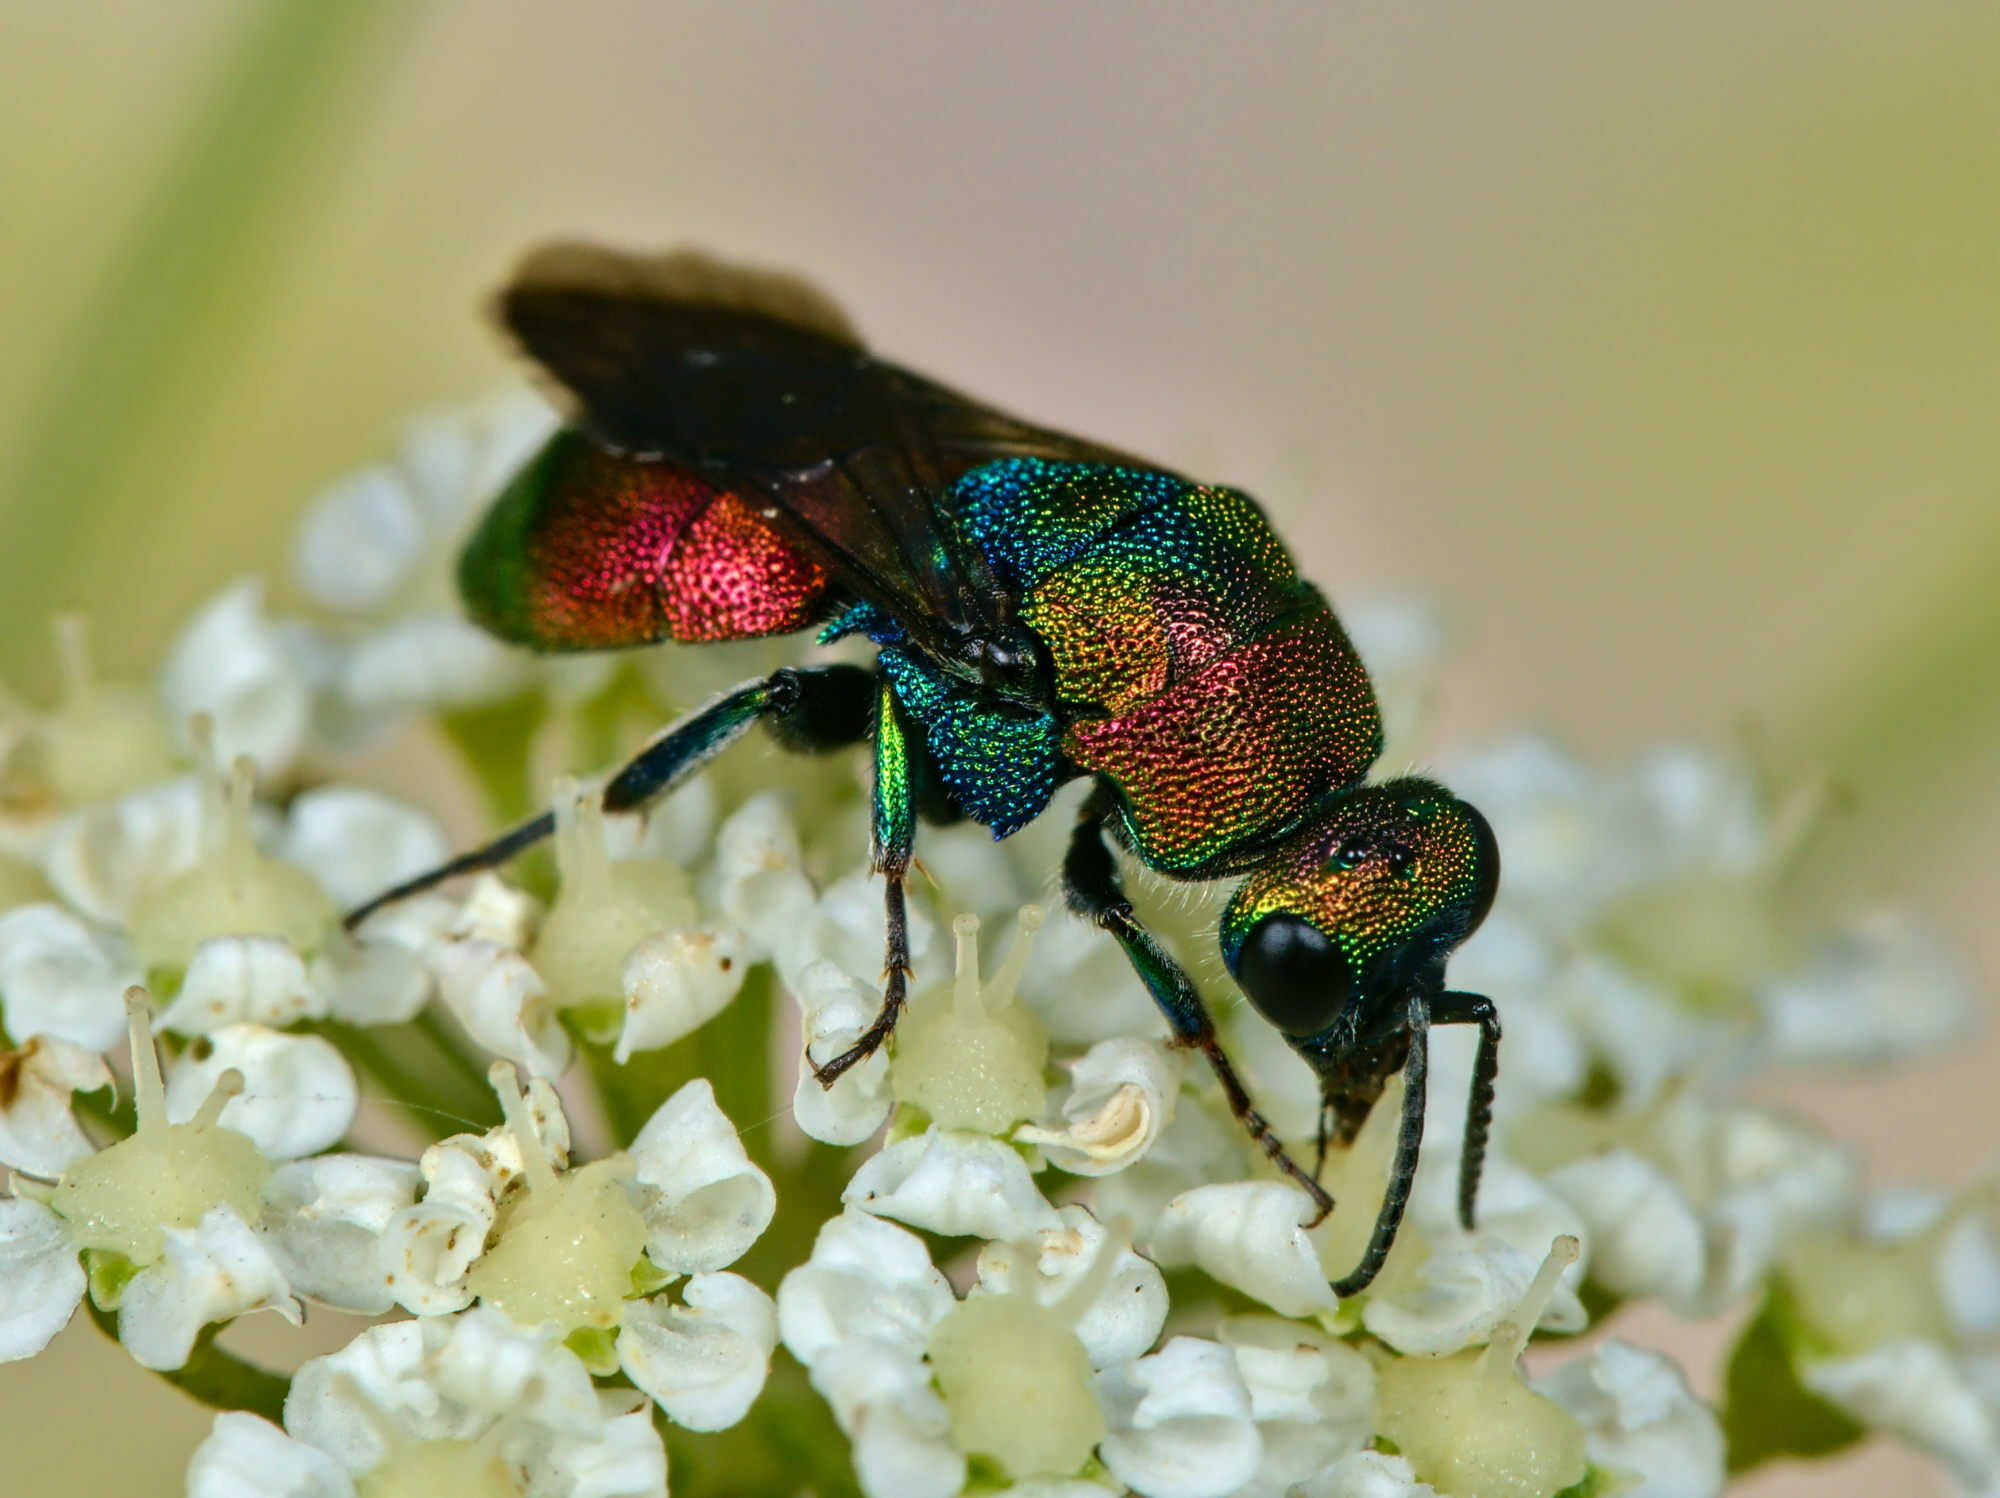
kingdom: Animalia
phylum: Arthropoda
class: Insecta
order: Hymenoptera
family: Chrysididae
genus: Hedychrum
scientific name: Hedychrum rutilans
